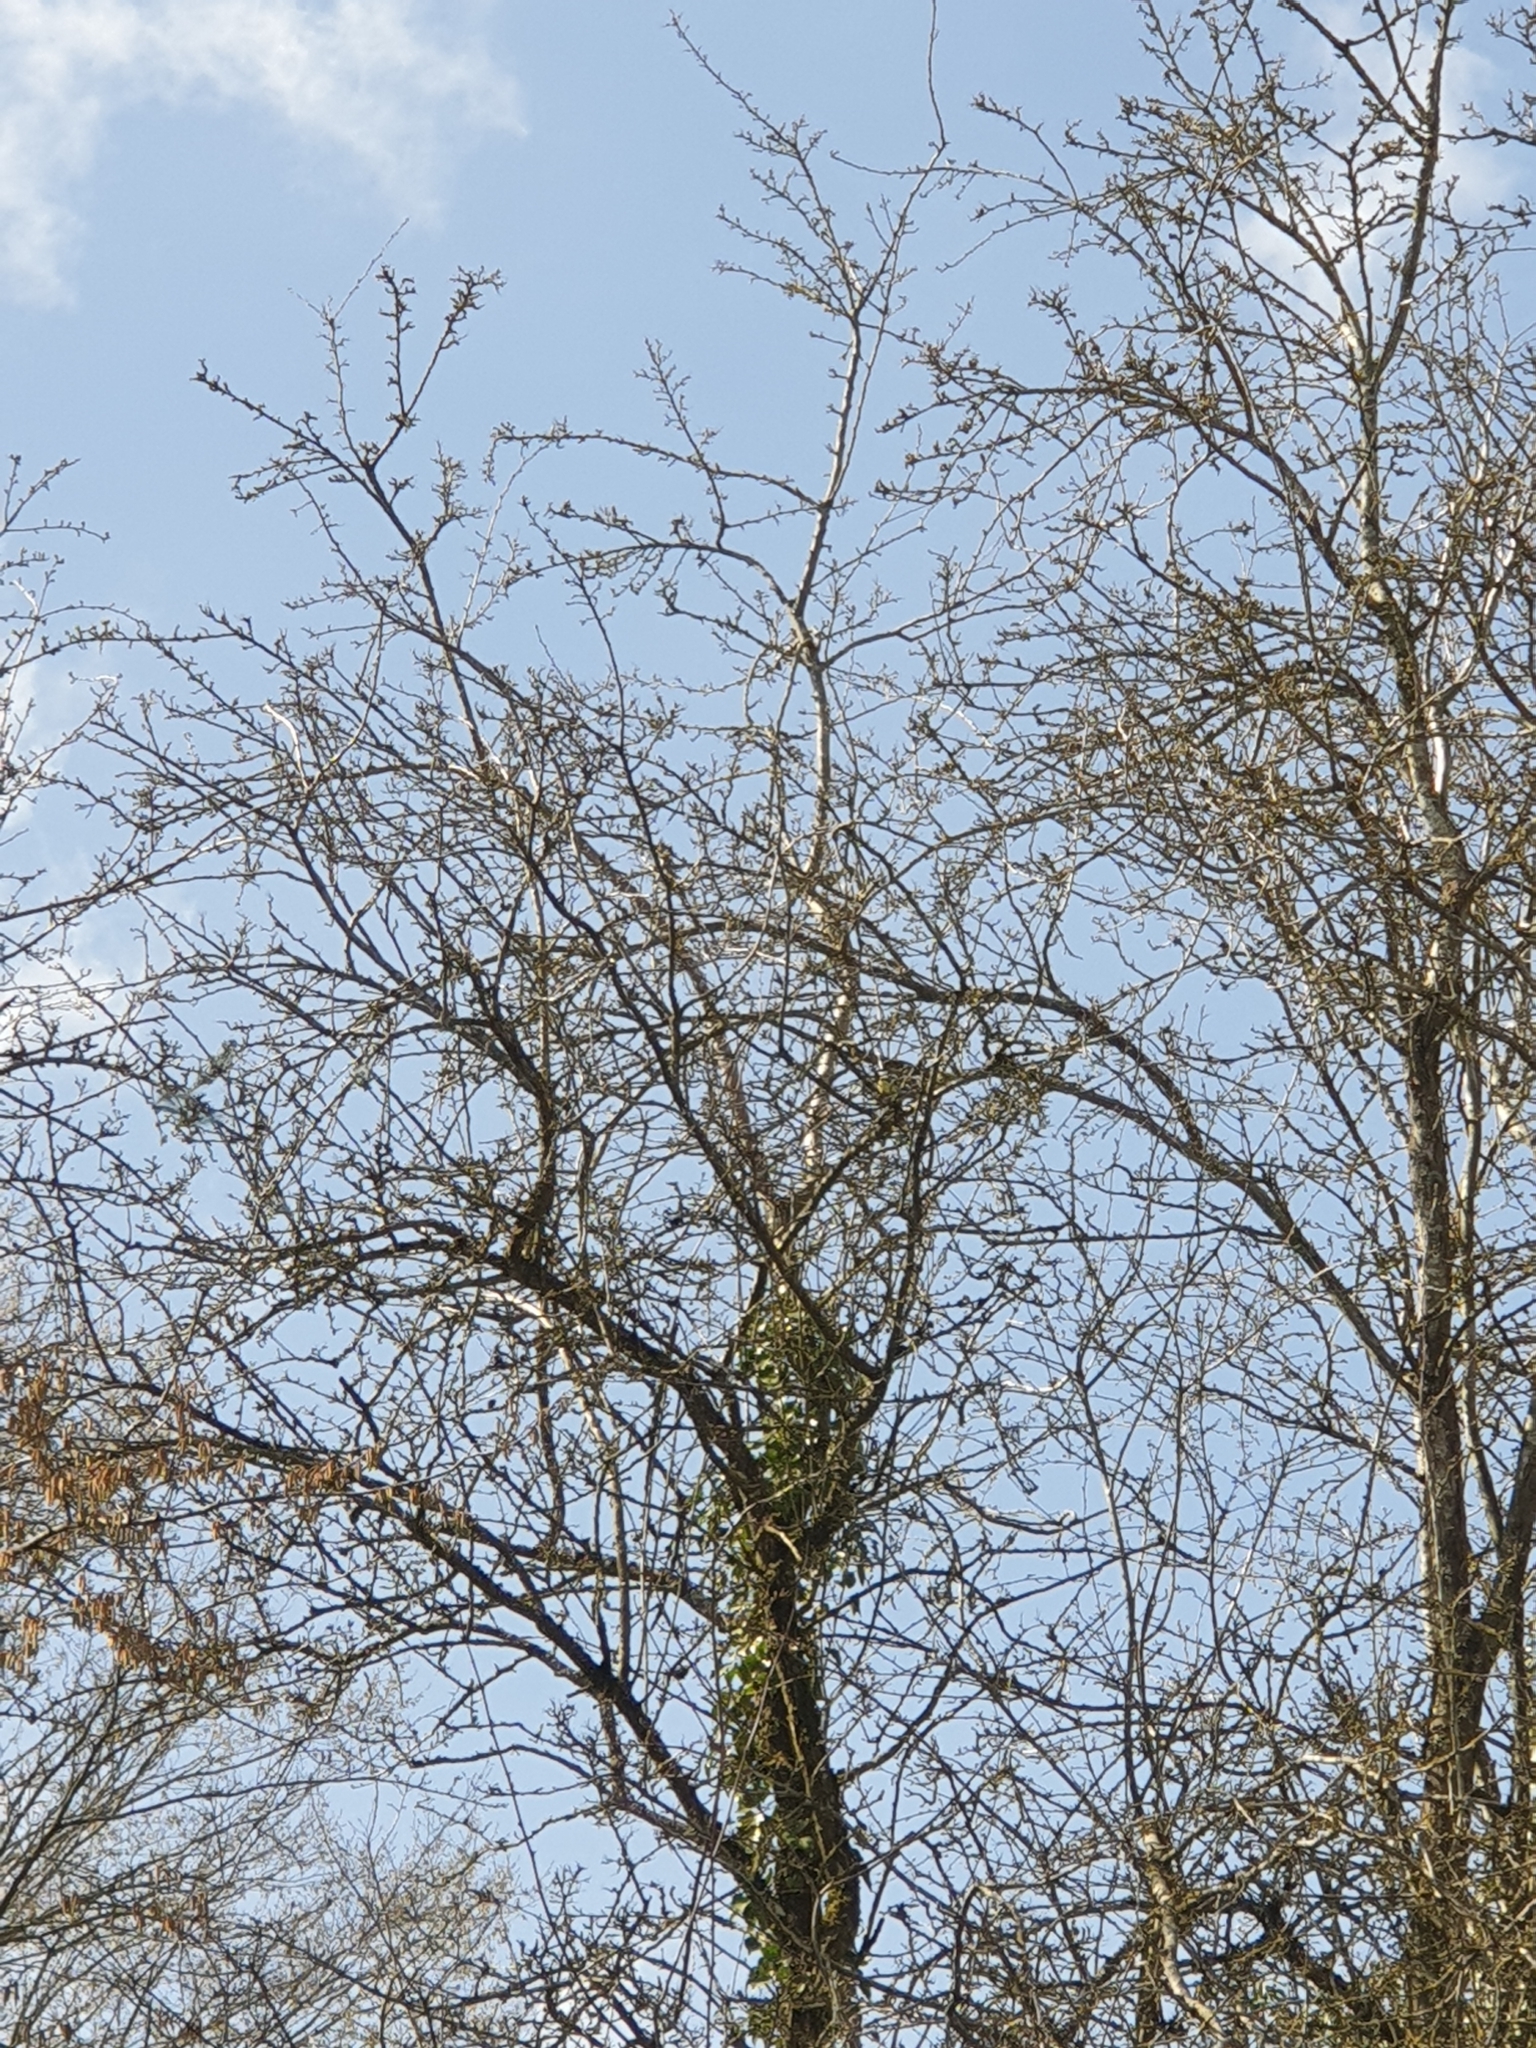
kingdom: Animalia
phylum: Chordata
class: Aves
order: Passeriformes
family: Paridae
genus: Parus
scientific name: Parus major
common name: Great tit
